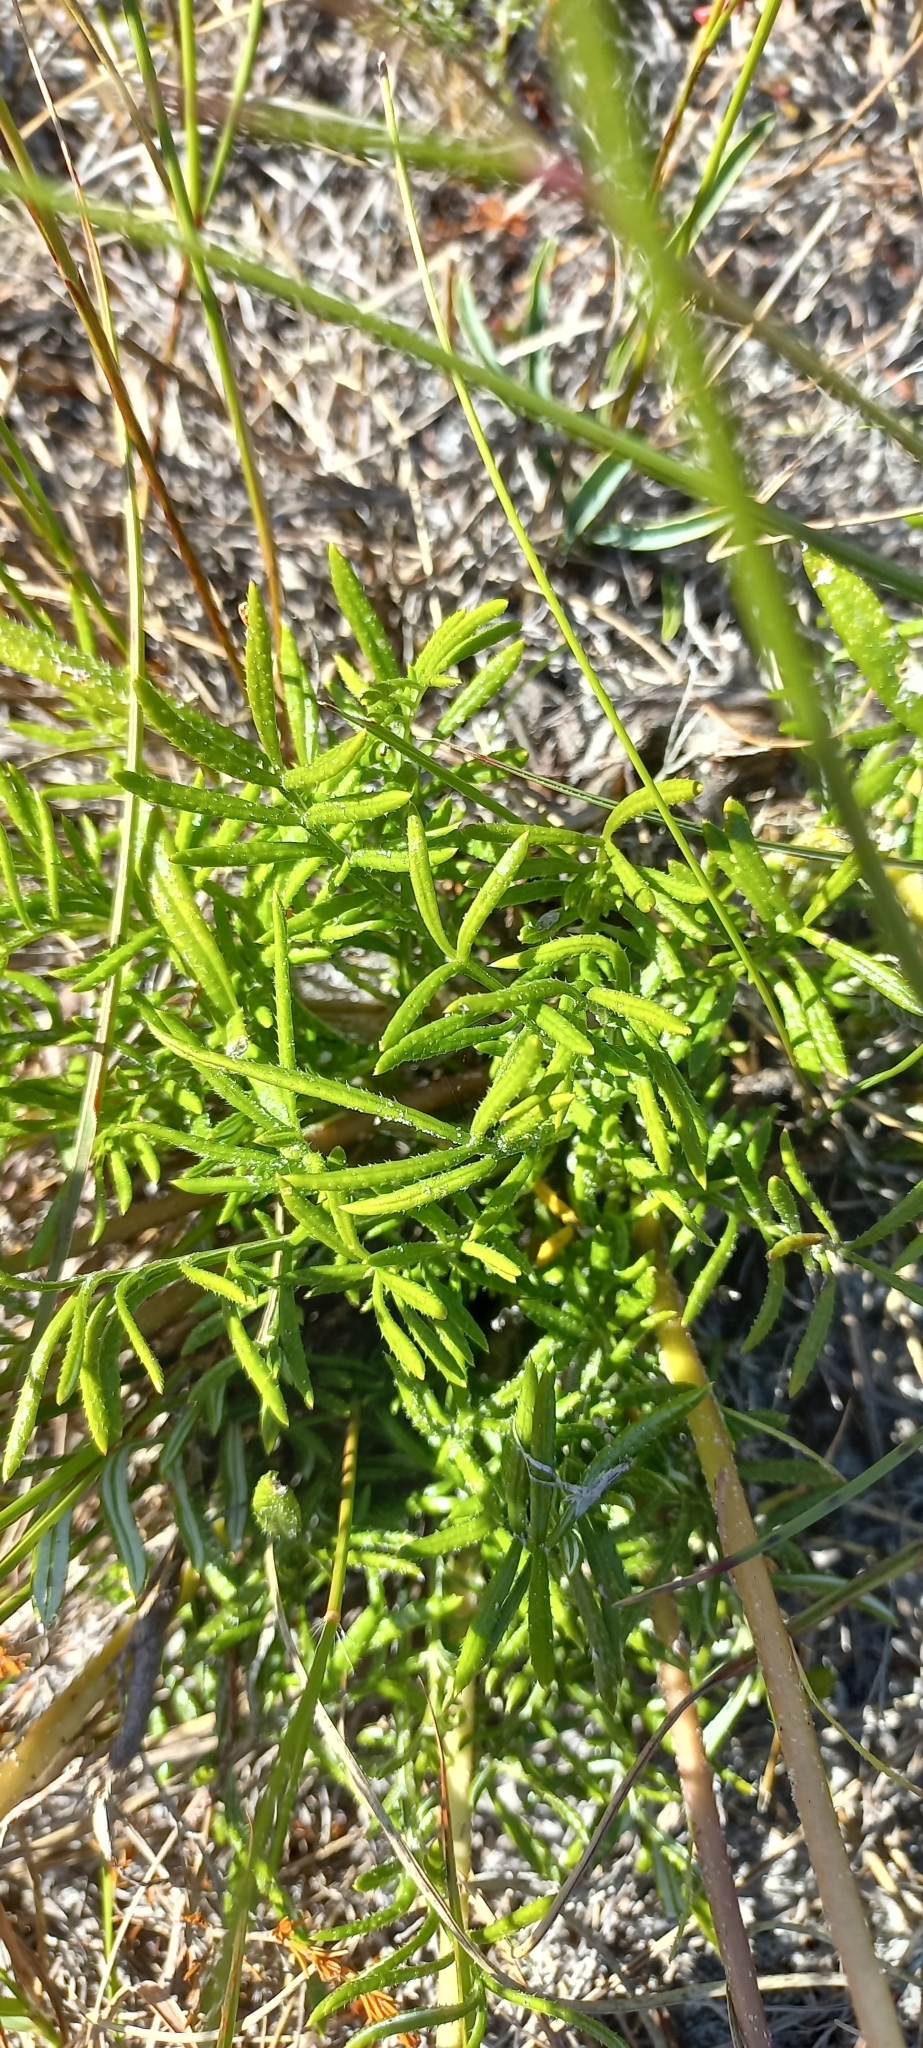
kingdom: Plantae
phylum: Tracheophyta
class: Magnoliopsida
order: Asterales
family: Asteraceae
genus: Gazania
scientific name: Gazania pectinata
